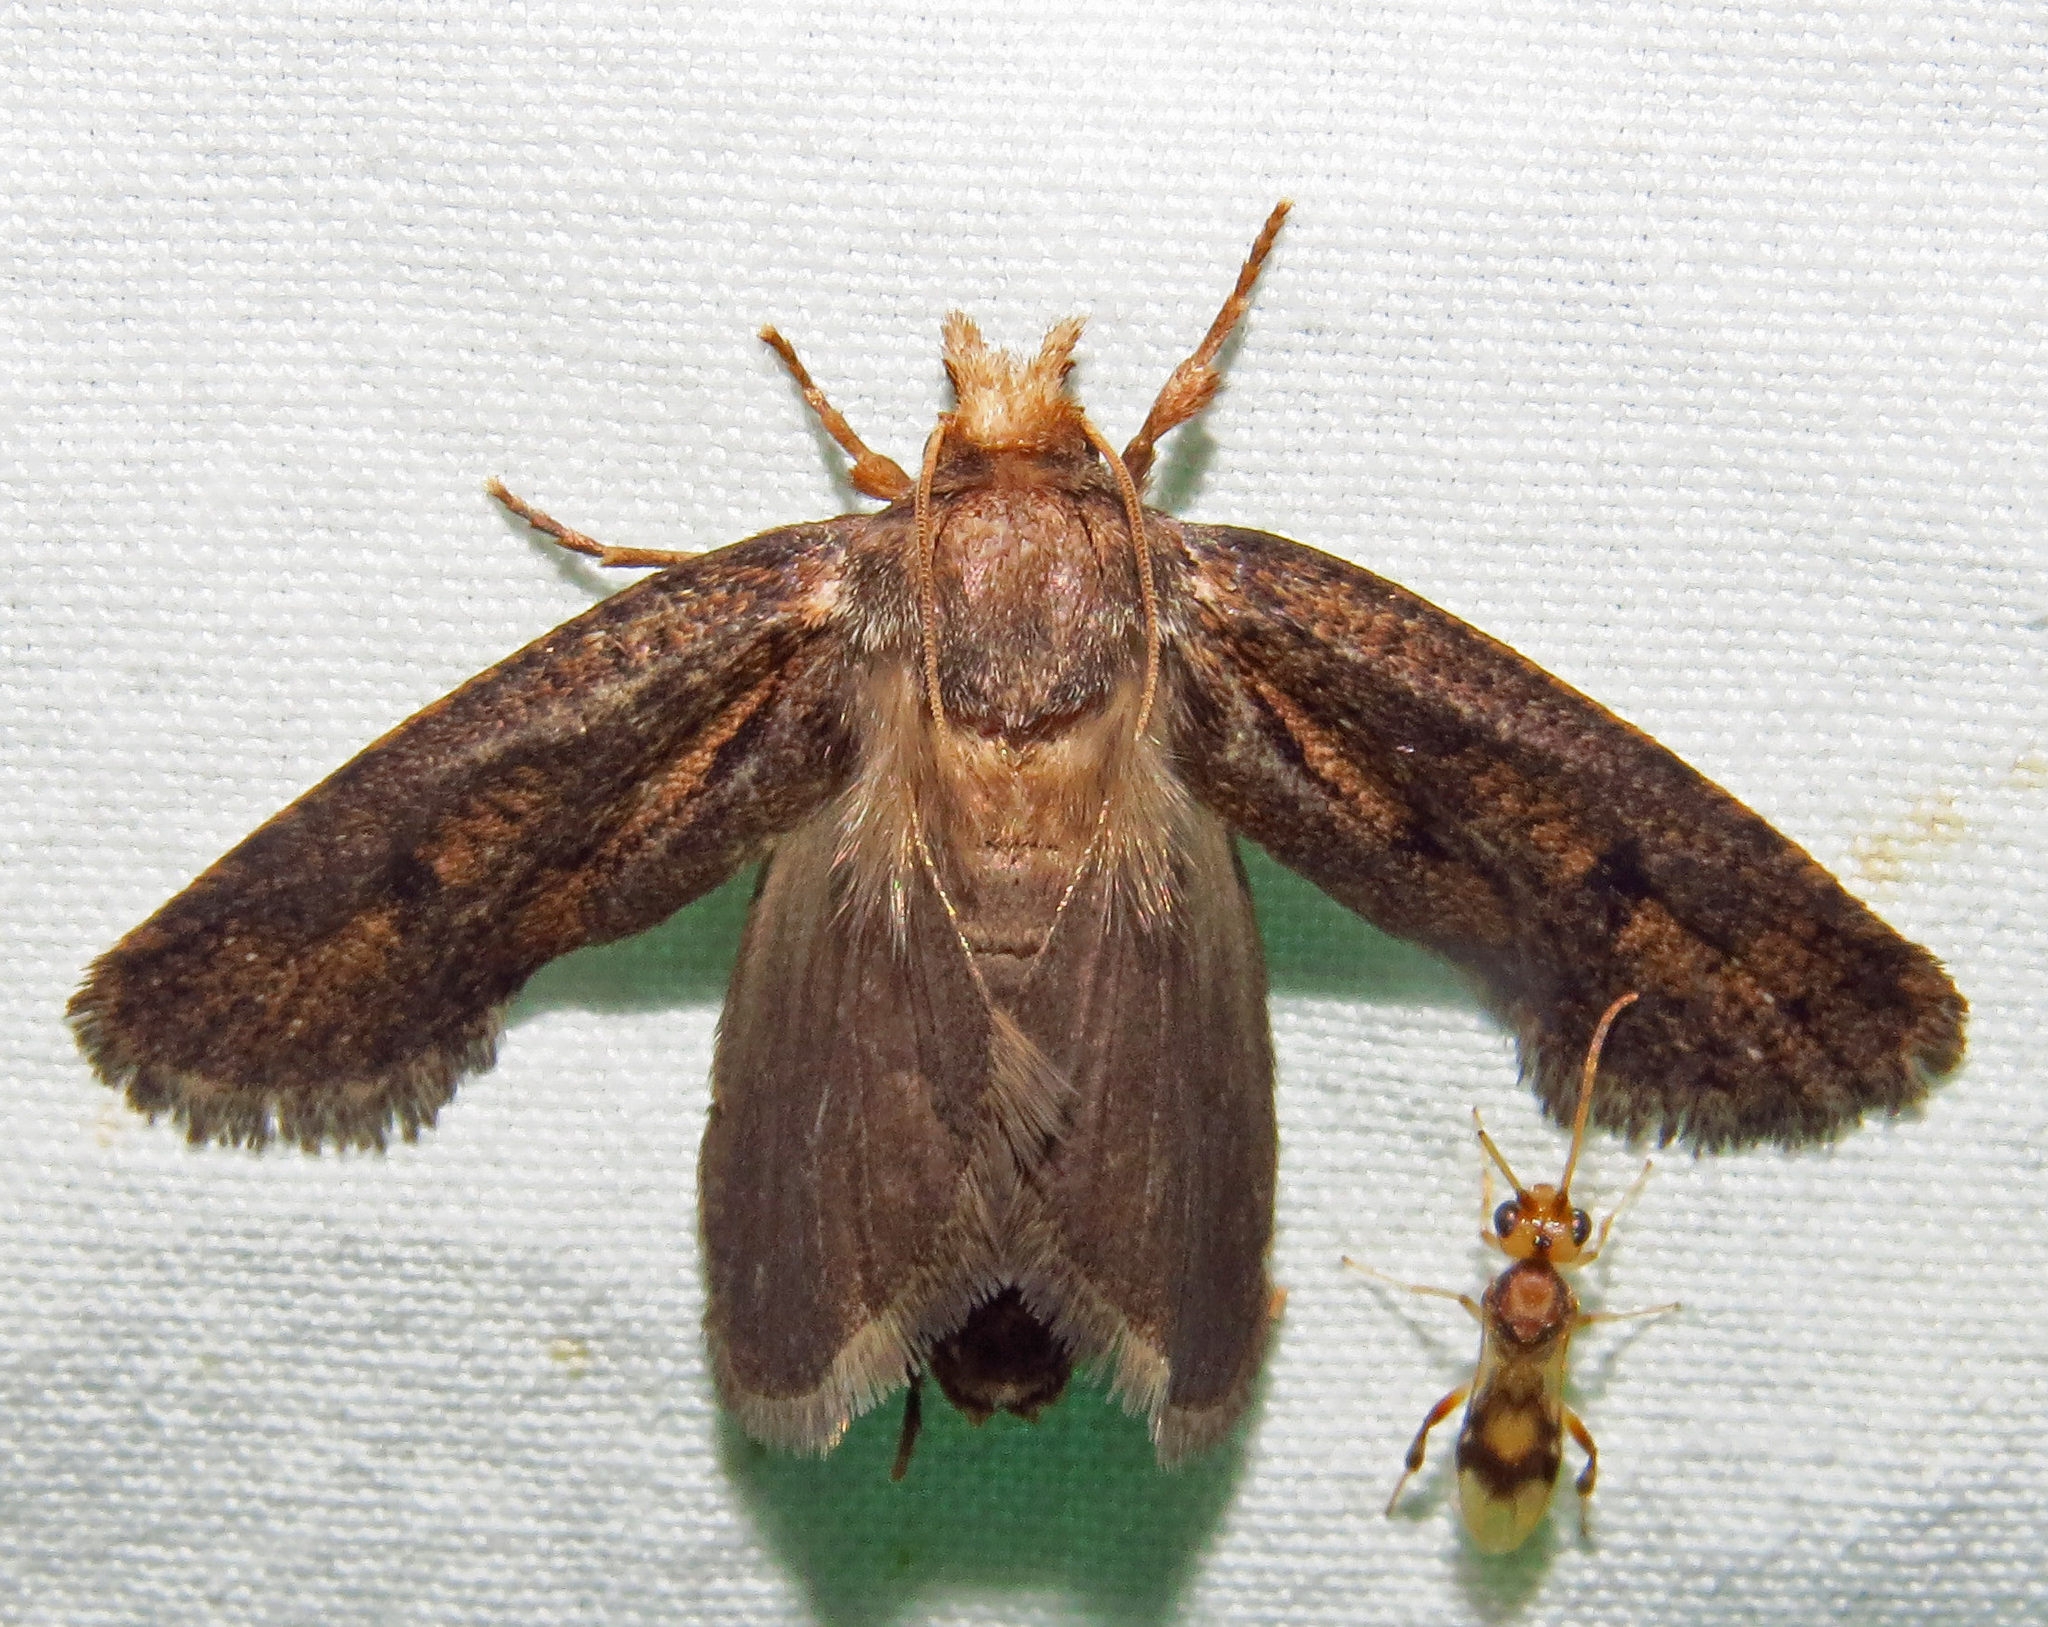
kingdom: Animalia
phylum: Arthropoda
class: Insecta
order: Lepidoptera
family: Tineidae
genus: Acrolophus
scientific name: Acrolophus popeanella
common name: Clemens' grass tubeworm moth
